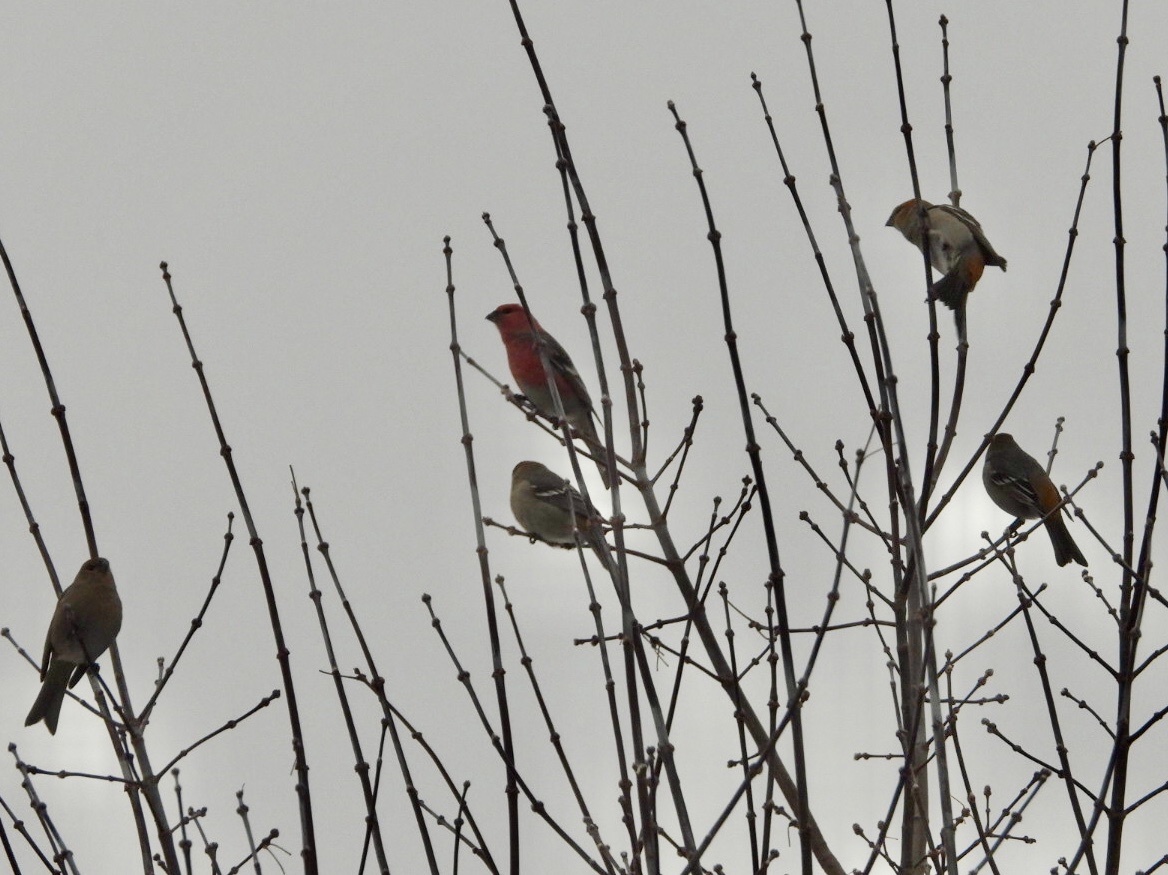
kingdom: Animalia
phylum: Chordata
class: Aves
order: Passeriformes
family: Fringillidae
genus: Pinicola
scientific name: Pinicola enucleator
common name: Pine grosbeak
